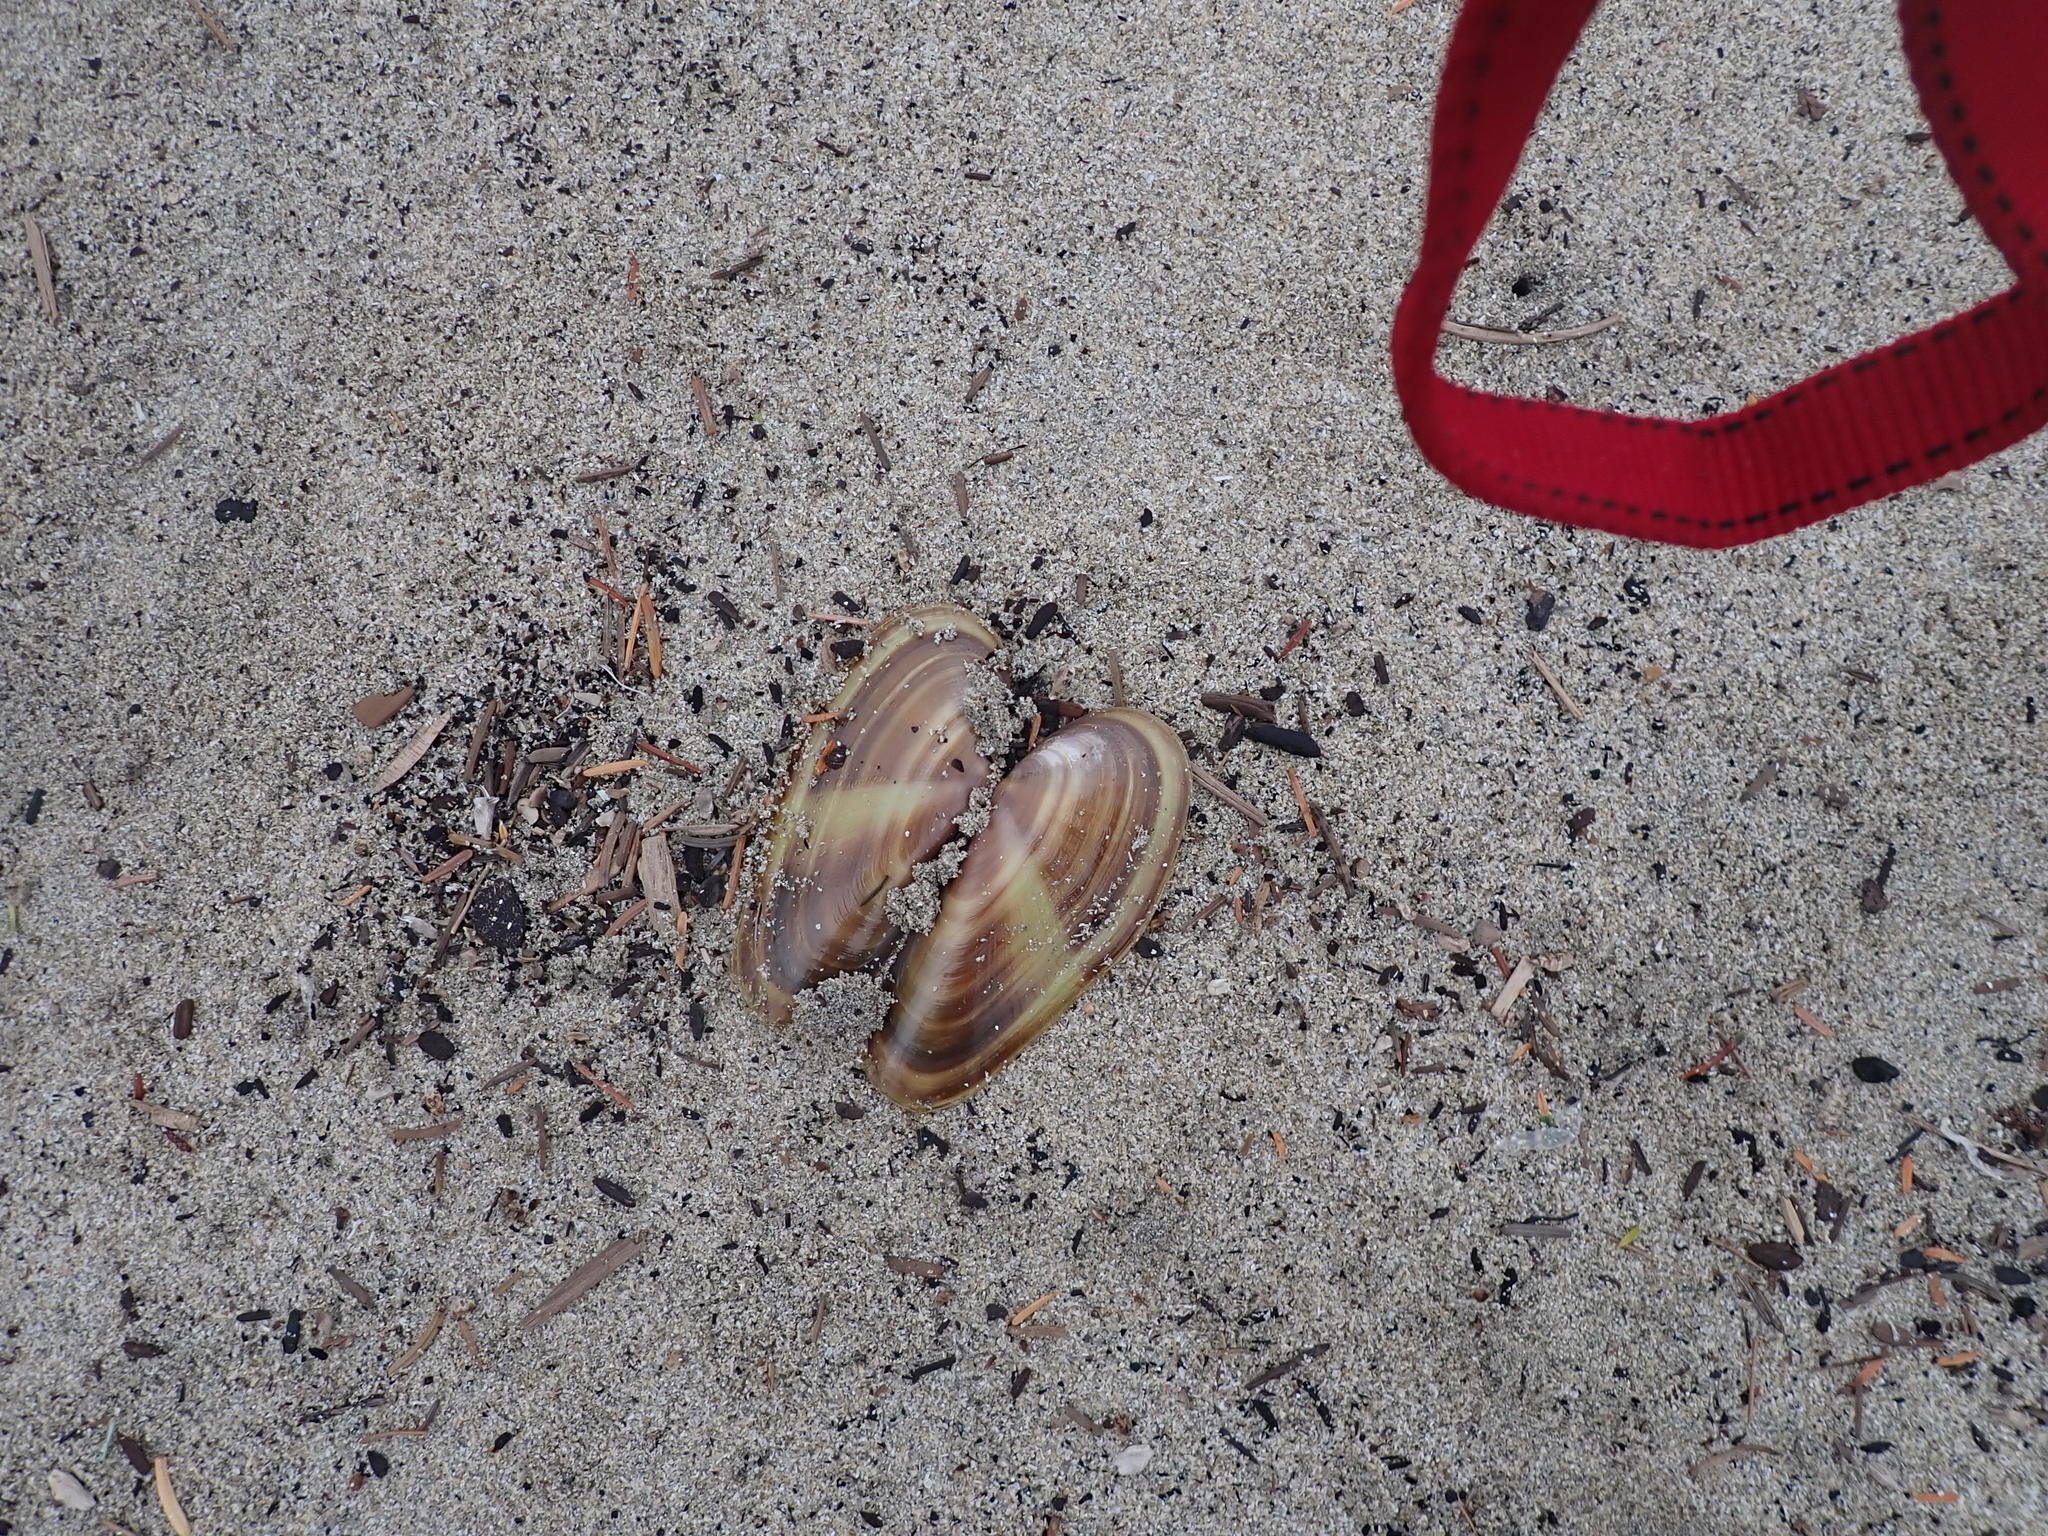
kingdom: Animalia
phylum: Mollusca
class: Bivalvia
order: Adapedonta
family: Pharidae
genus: Siliqua
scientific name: Siliqua patula
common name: Pacific razor clam
